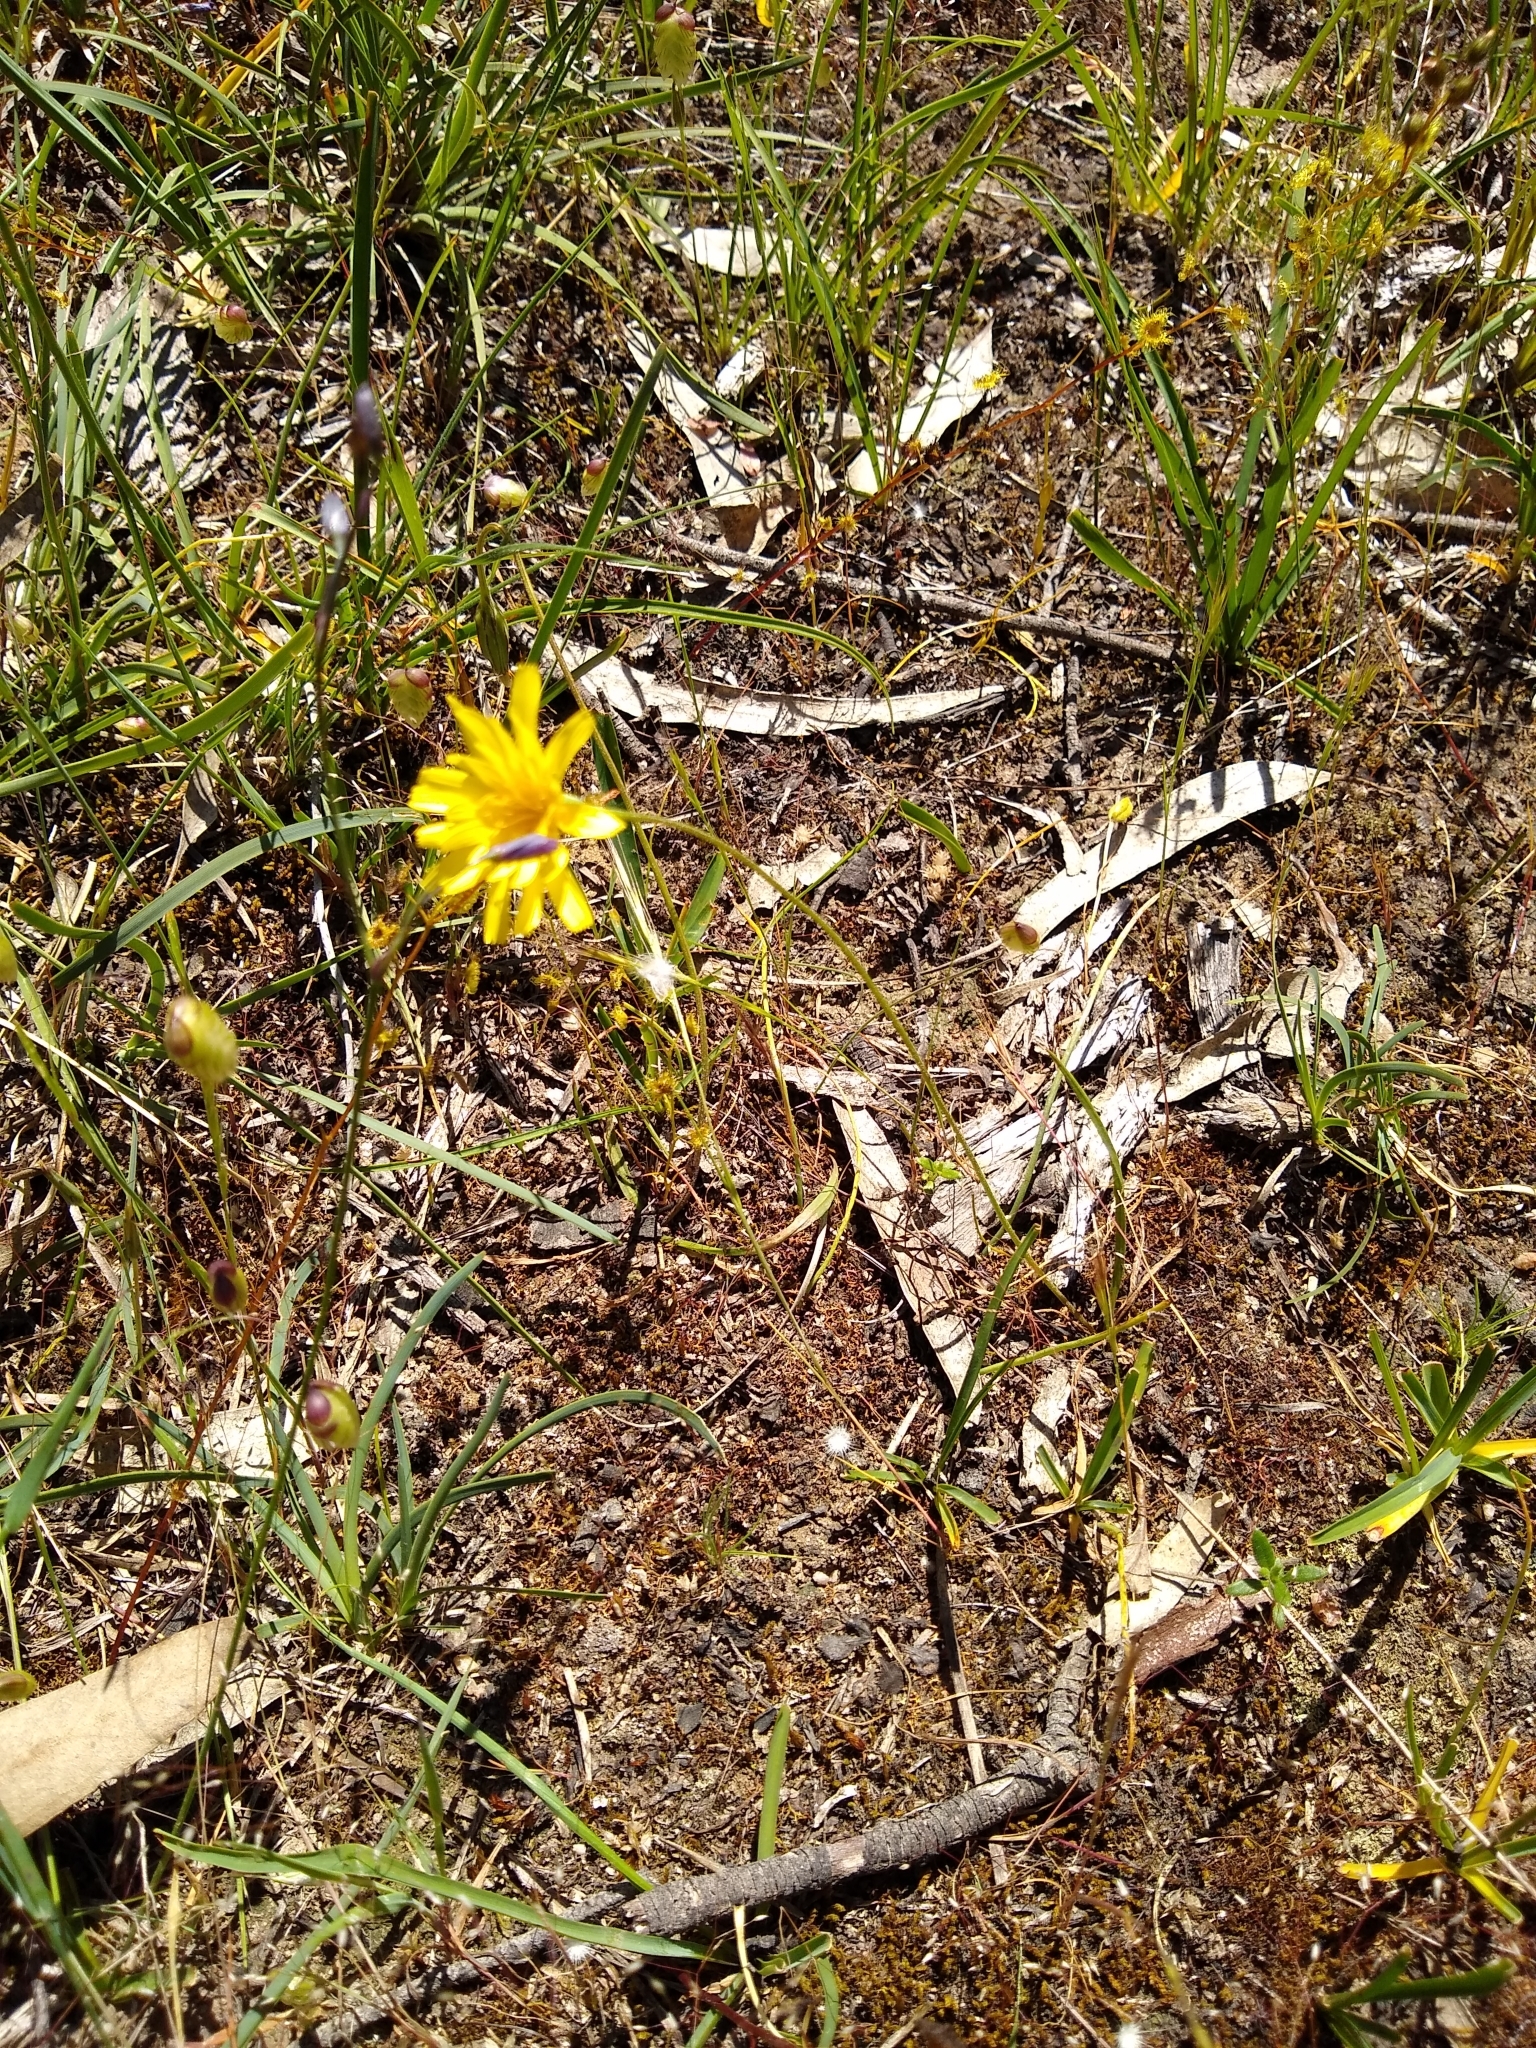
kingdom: Plantae
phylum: Tracheophyta
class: Magnoliopsida
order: Asterales
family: Asteraceae
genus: Microseris
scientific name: Microseris lanceolata
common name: Yam daisy
